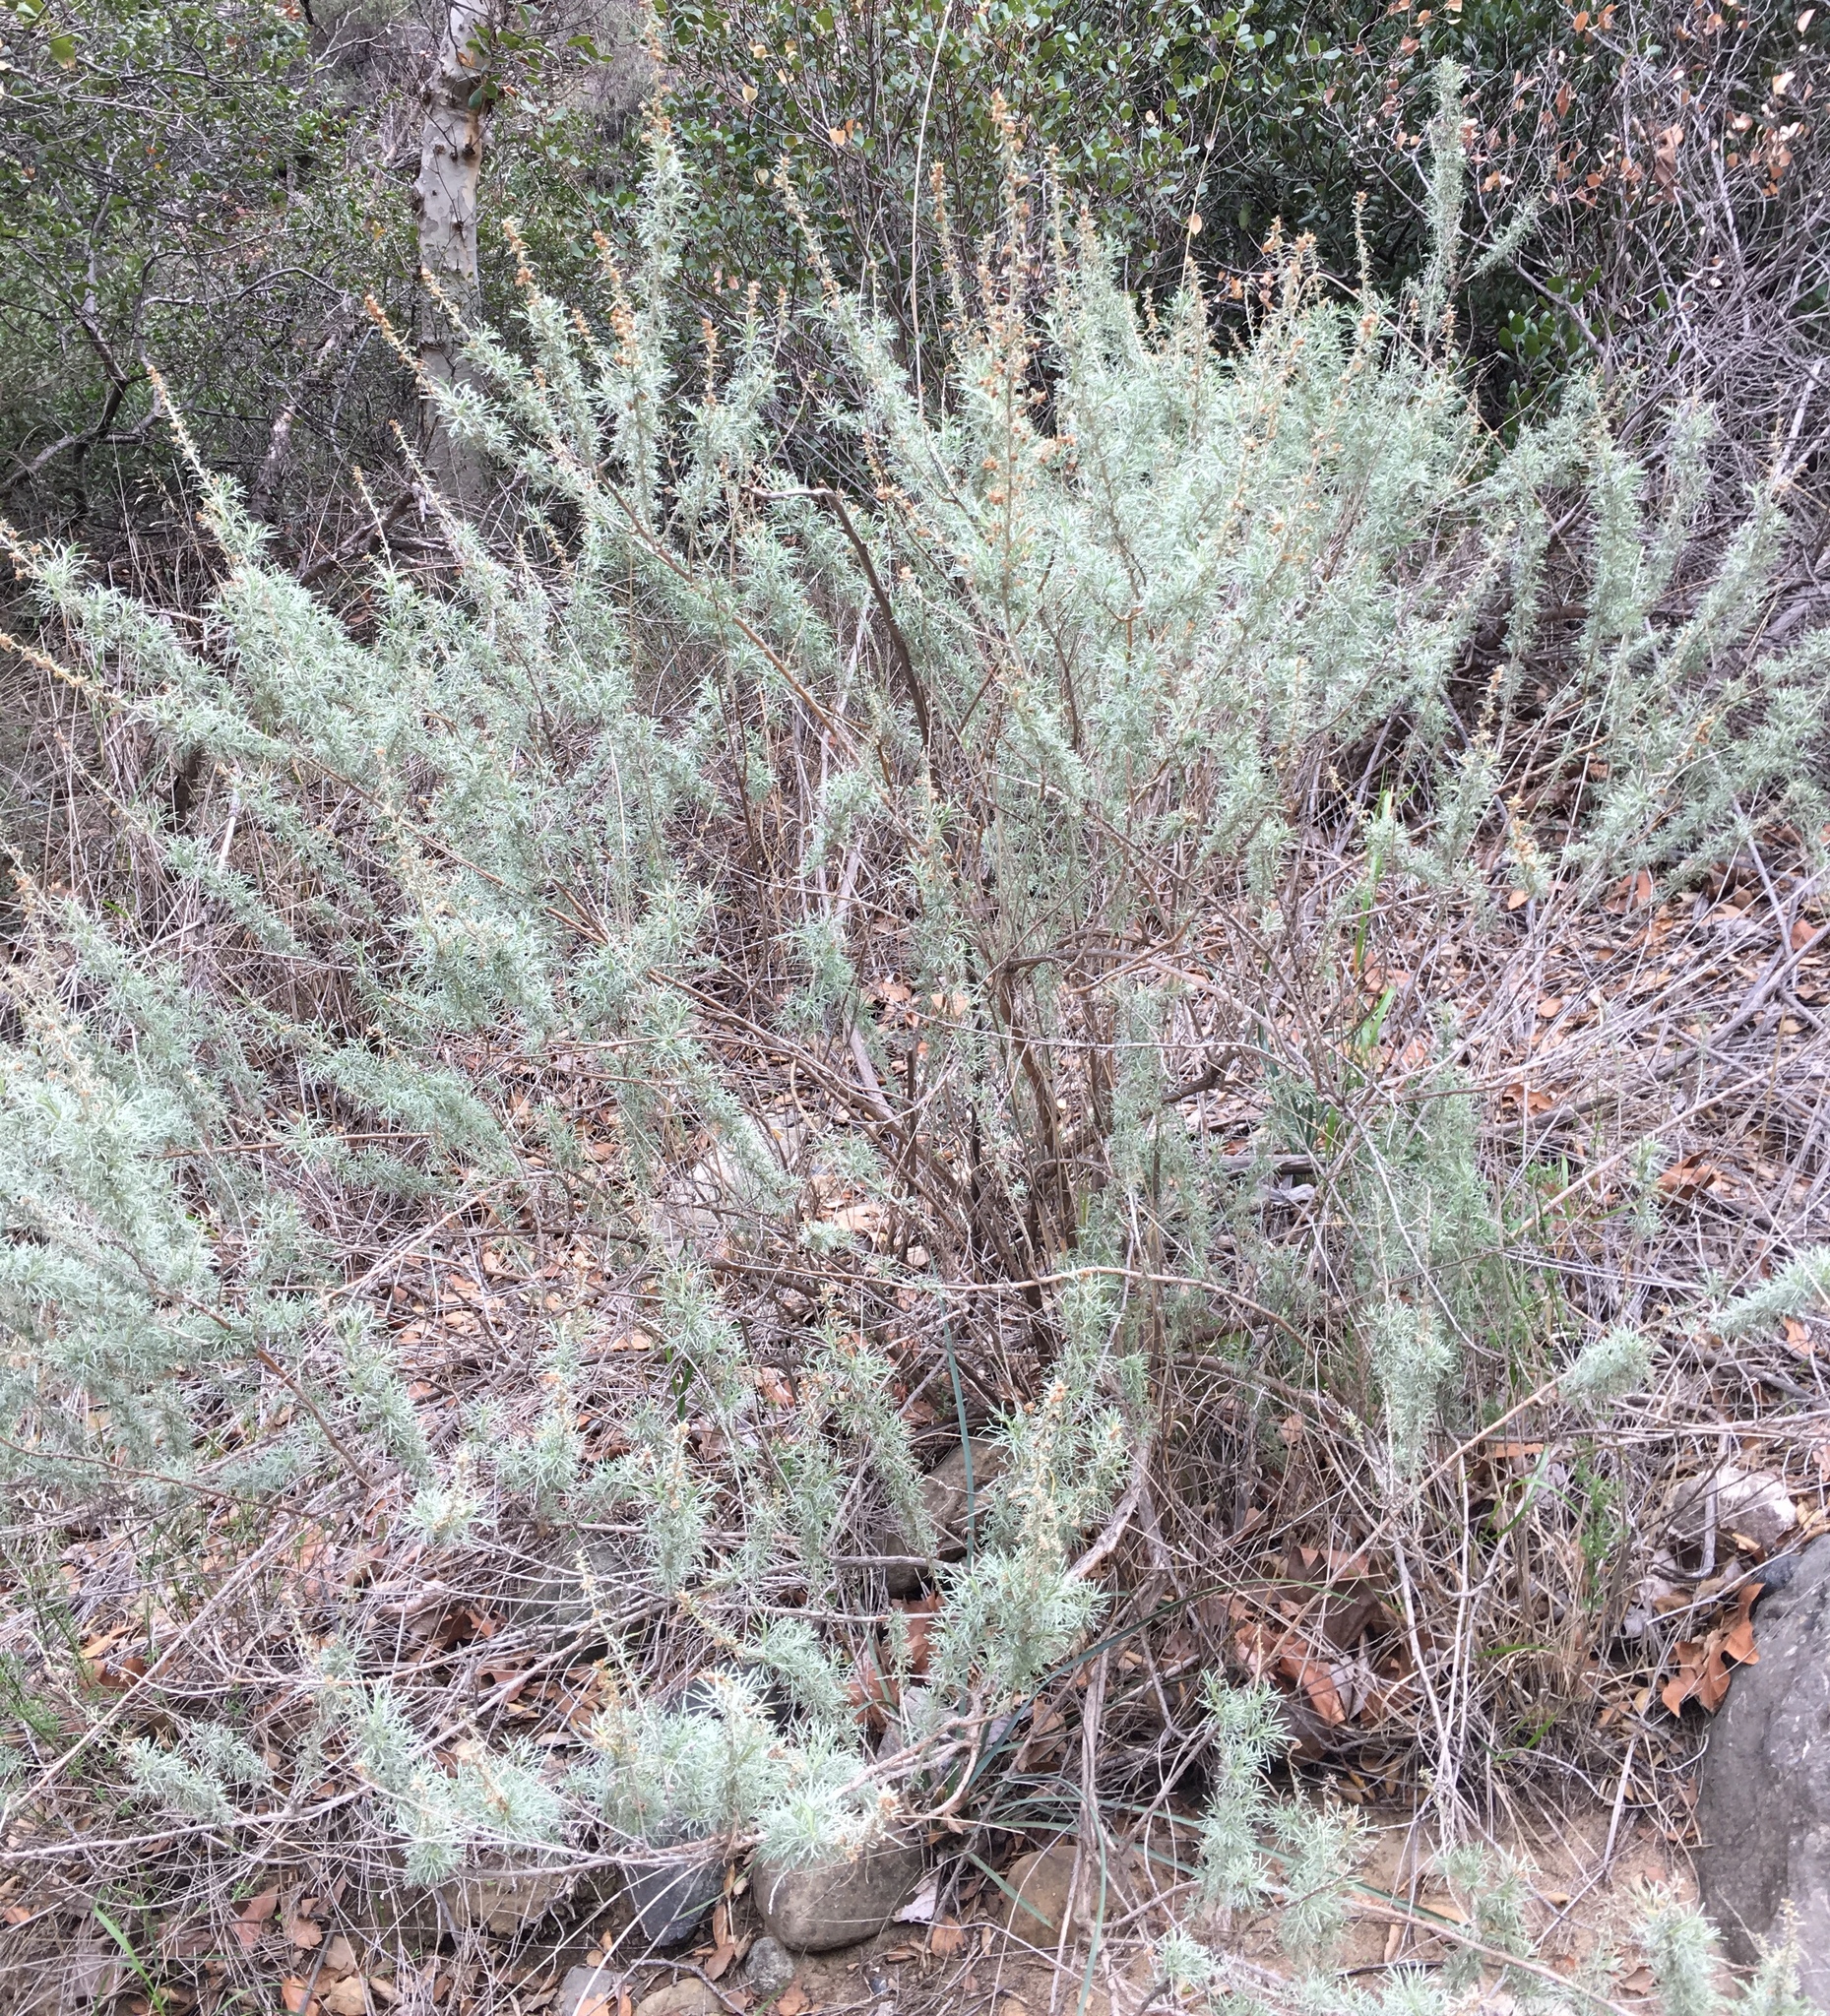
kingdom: Plantae
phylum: Tracheophyta
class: Magnoliopsida
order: Asterales
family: Asteraceae
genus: Artemisia
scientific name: Artemisia californica
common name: California sagebrush
